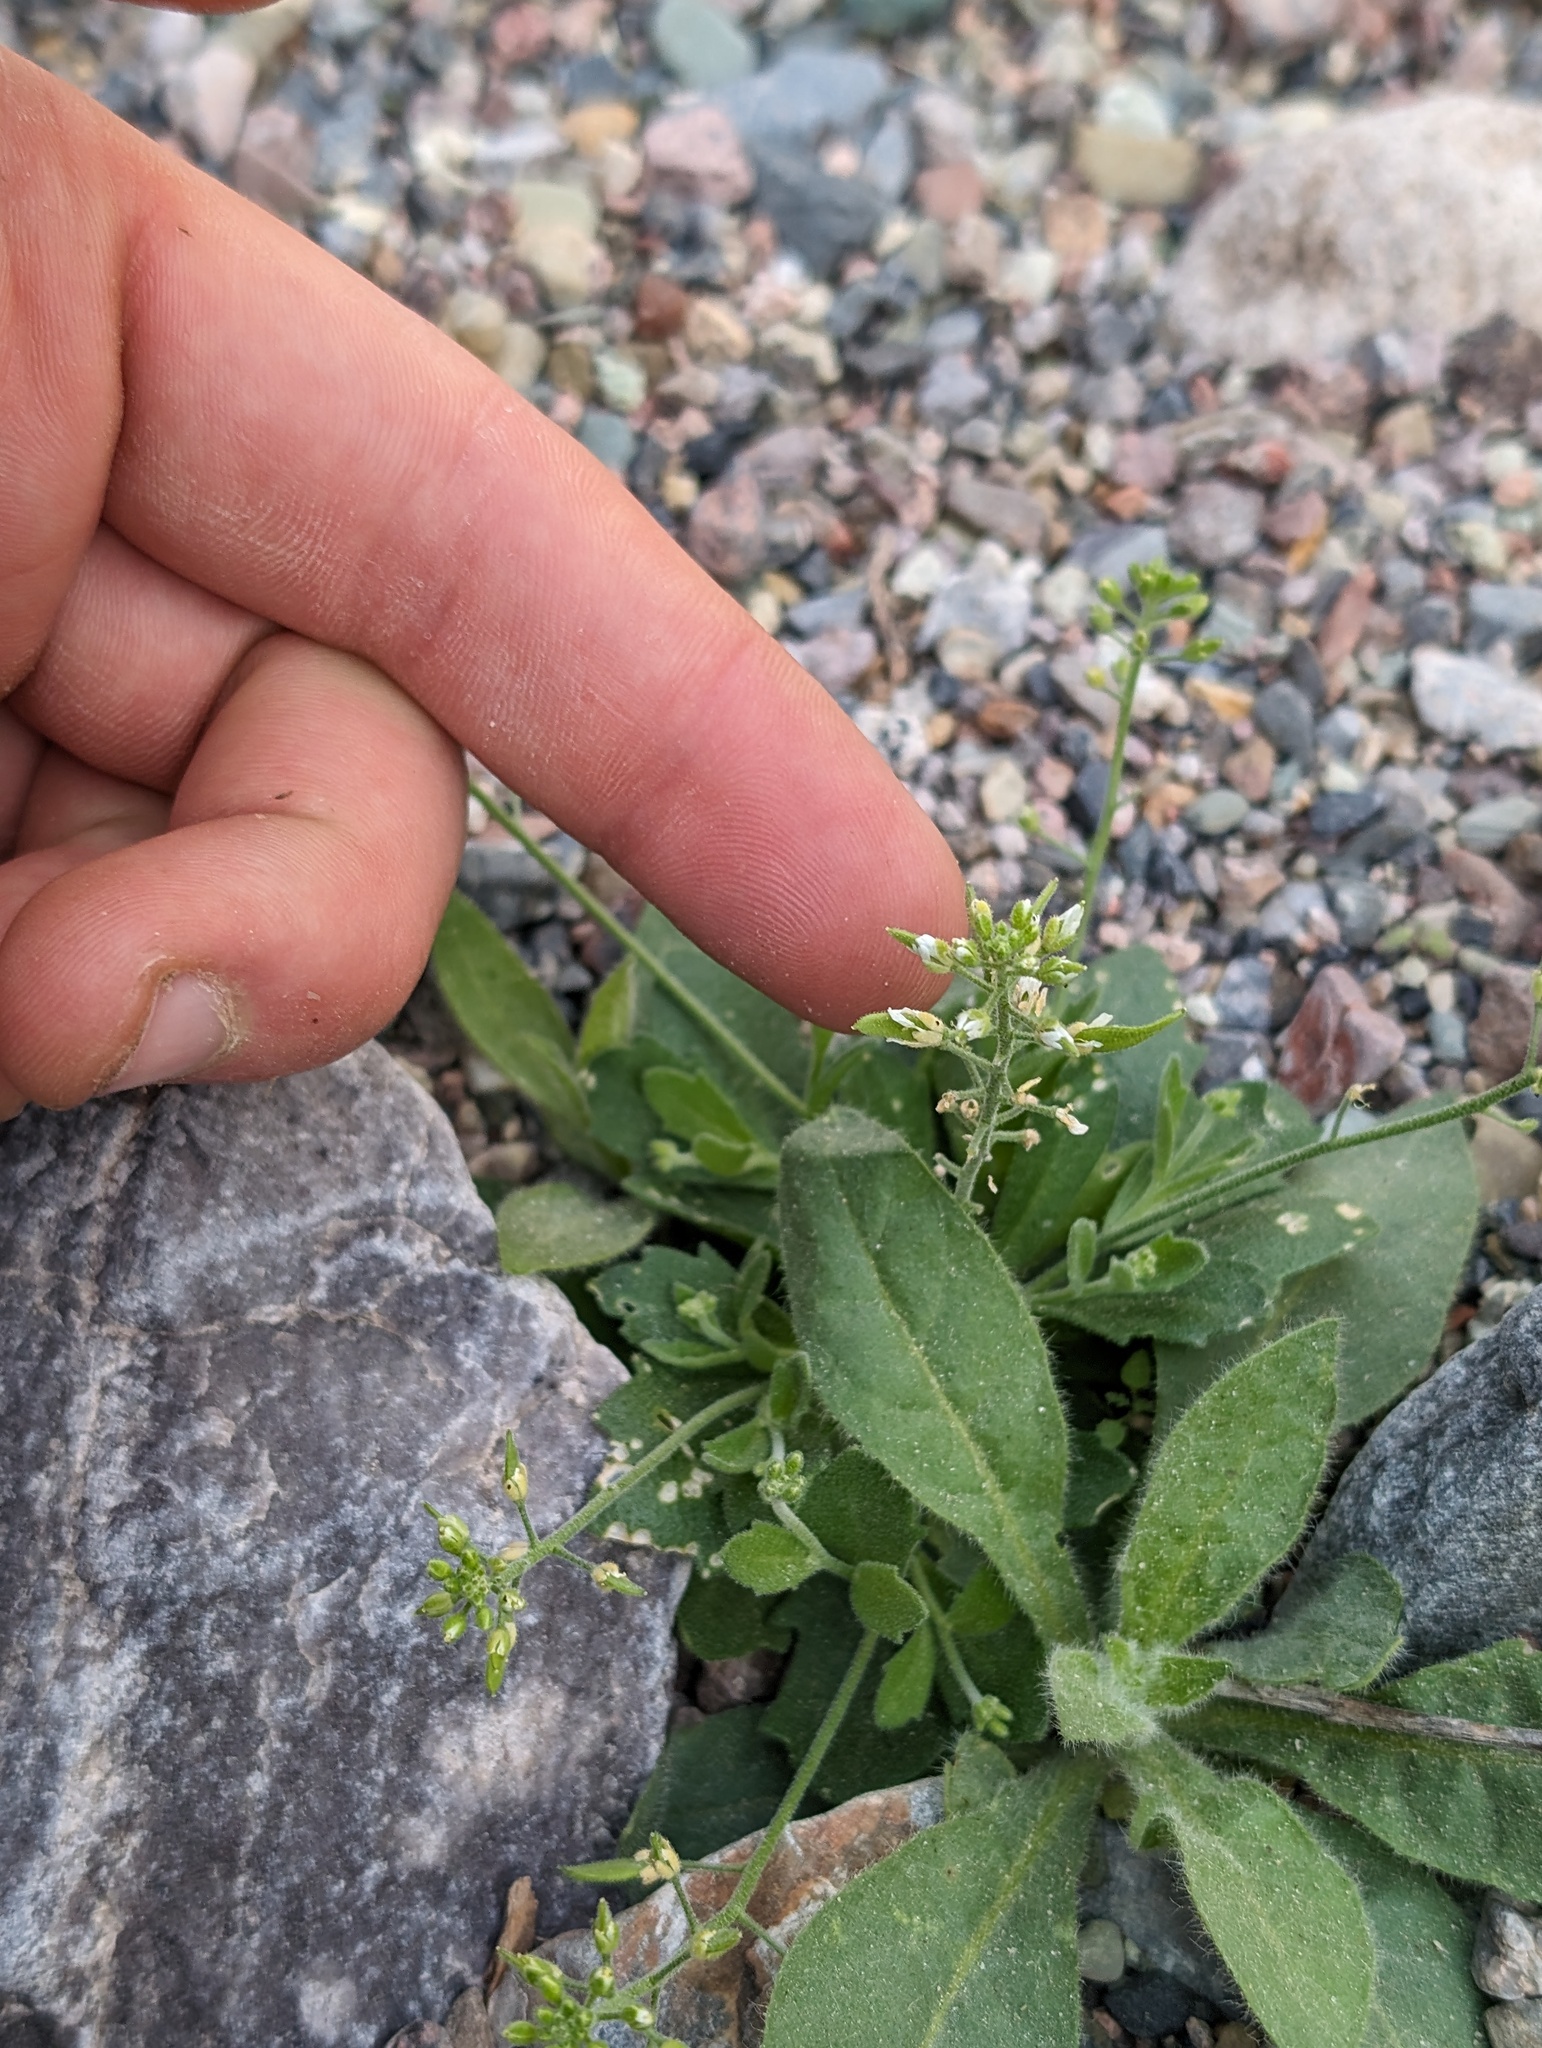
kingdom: Plantae
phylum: Tracheophyta
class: Magnoliopsida
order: Brassicales
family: Brassicaceae
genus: Tomostima
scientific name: Tomostima cuneifolia
